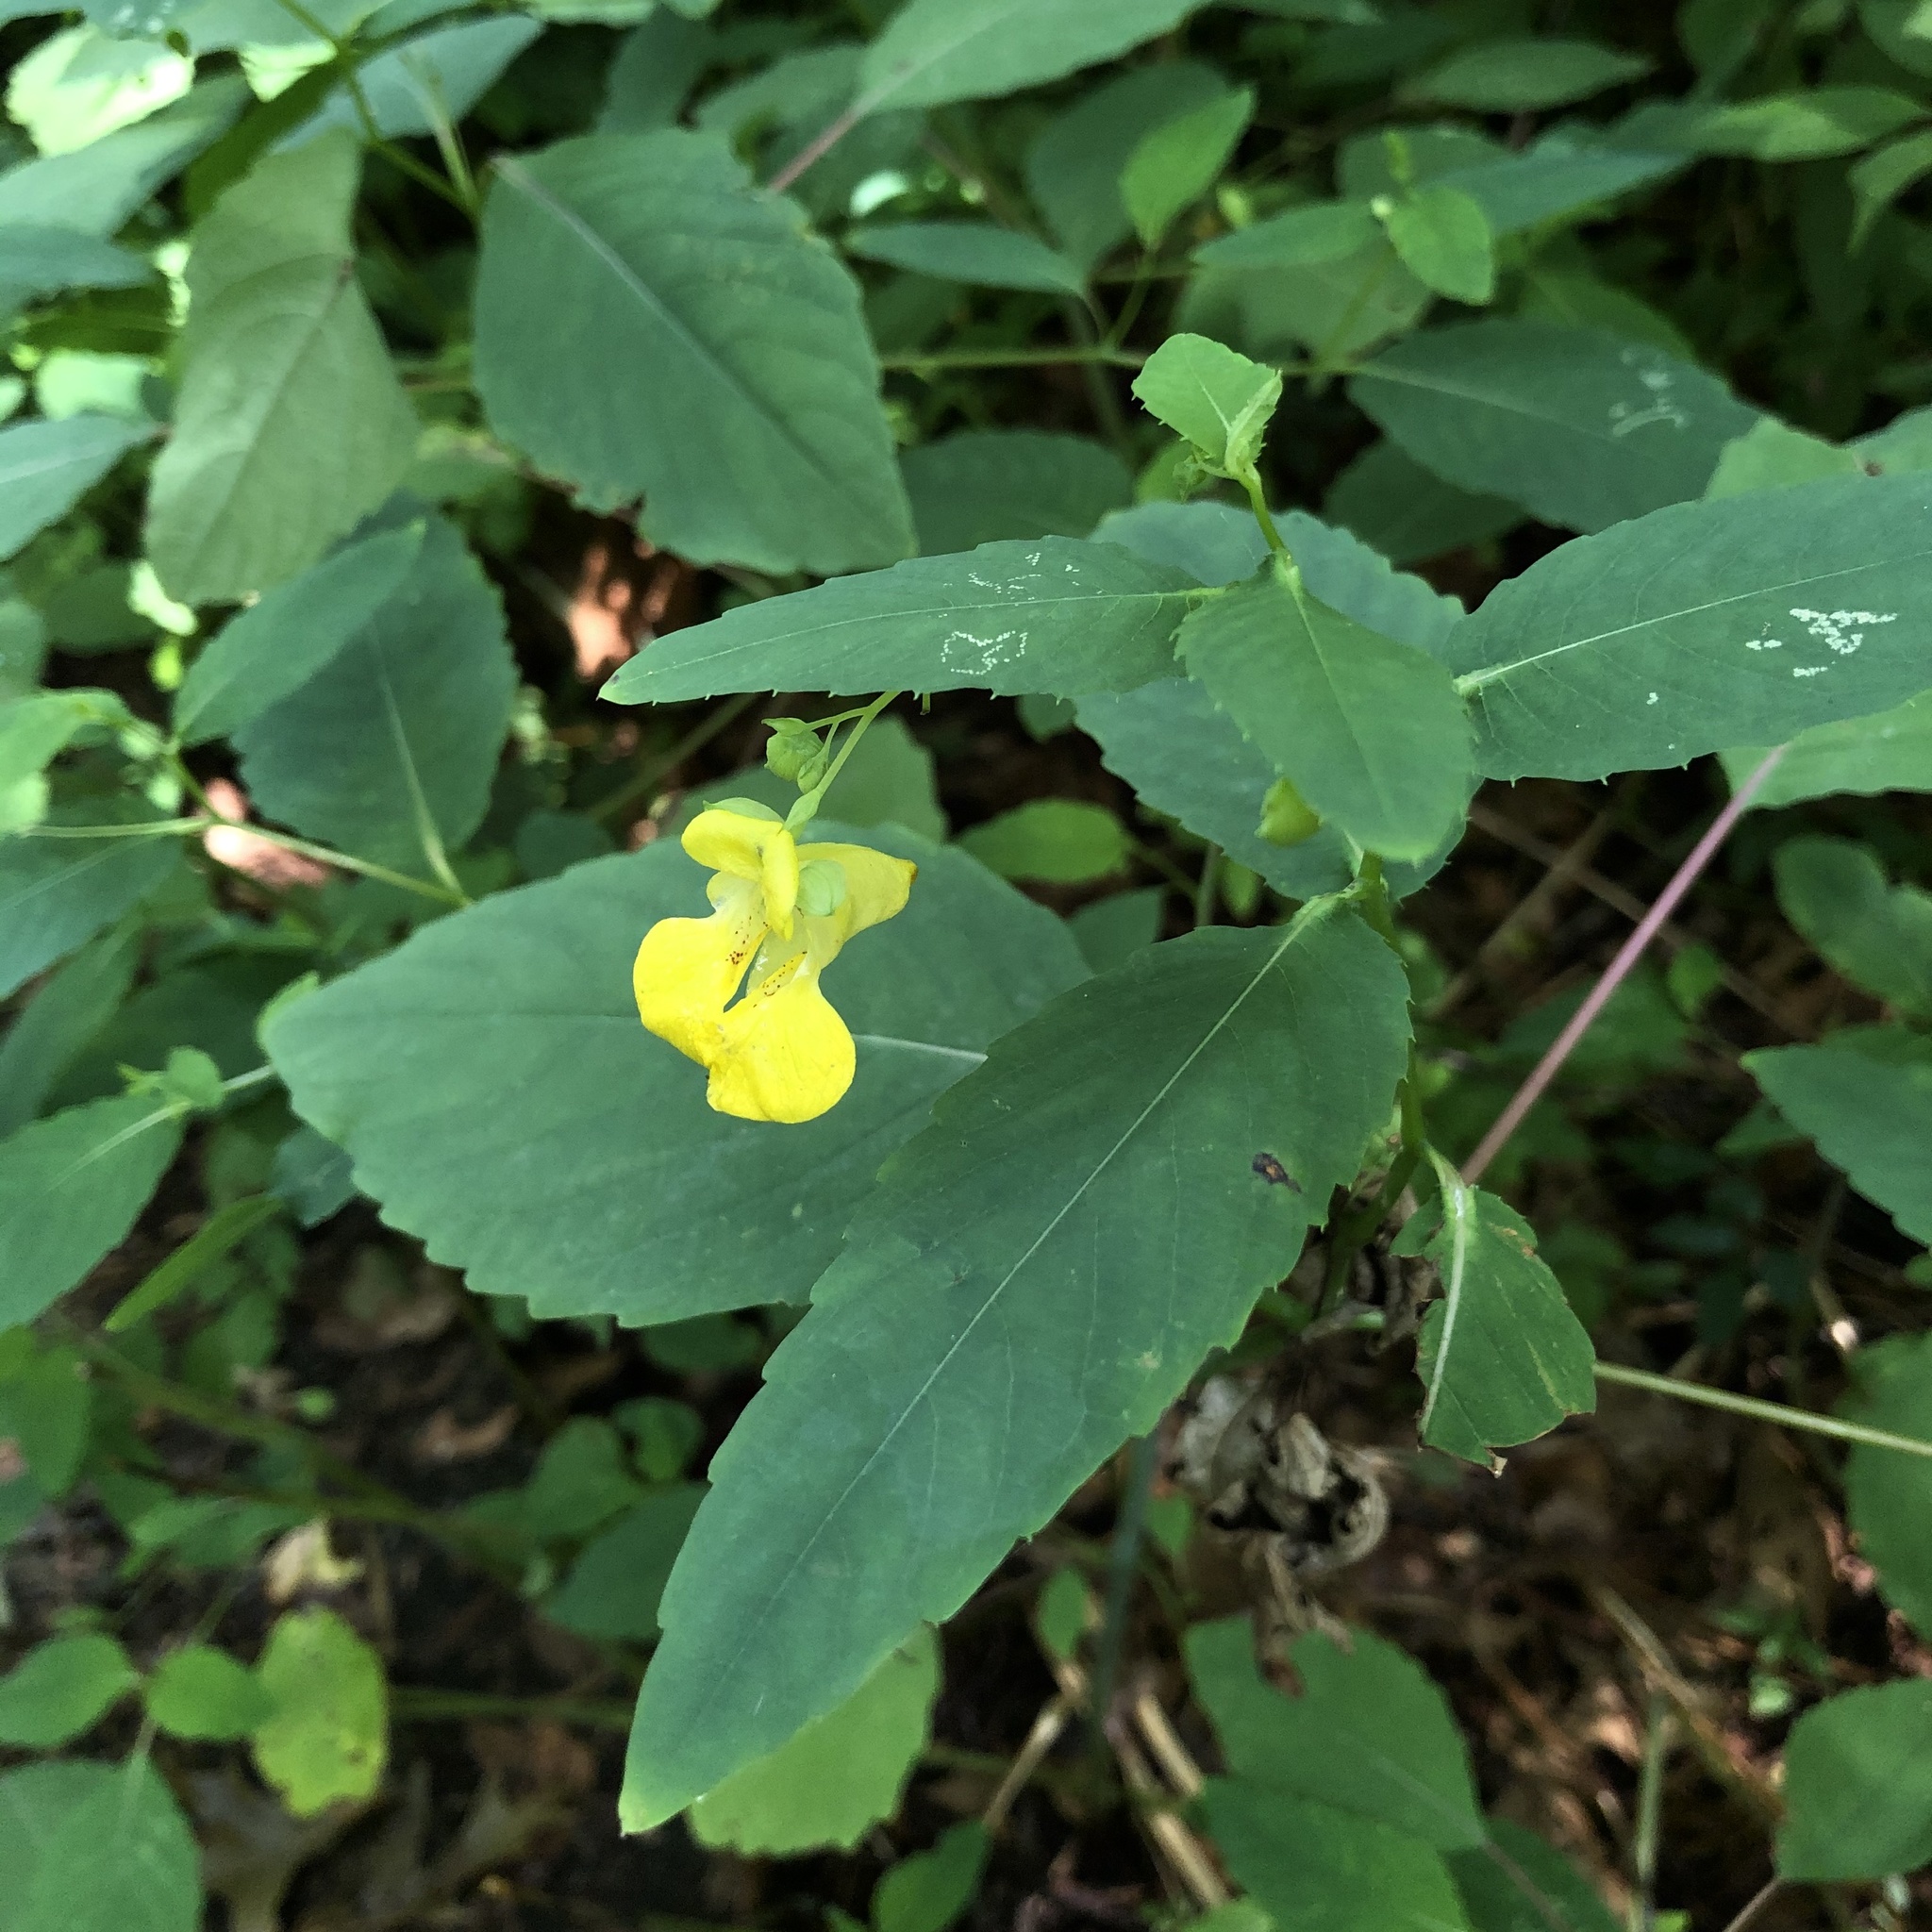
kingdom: Plantae
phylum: Tracheophyta
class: Magnoliopsida
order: Ericales
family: Balsaminaceae
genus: Impatiens
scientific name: Impatiens pallida
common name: Pale snapweed
